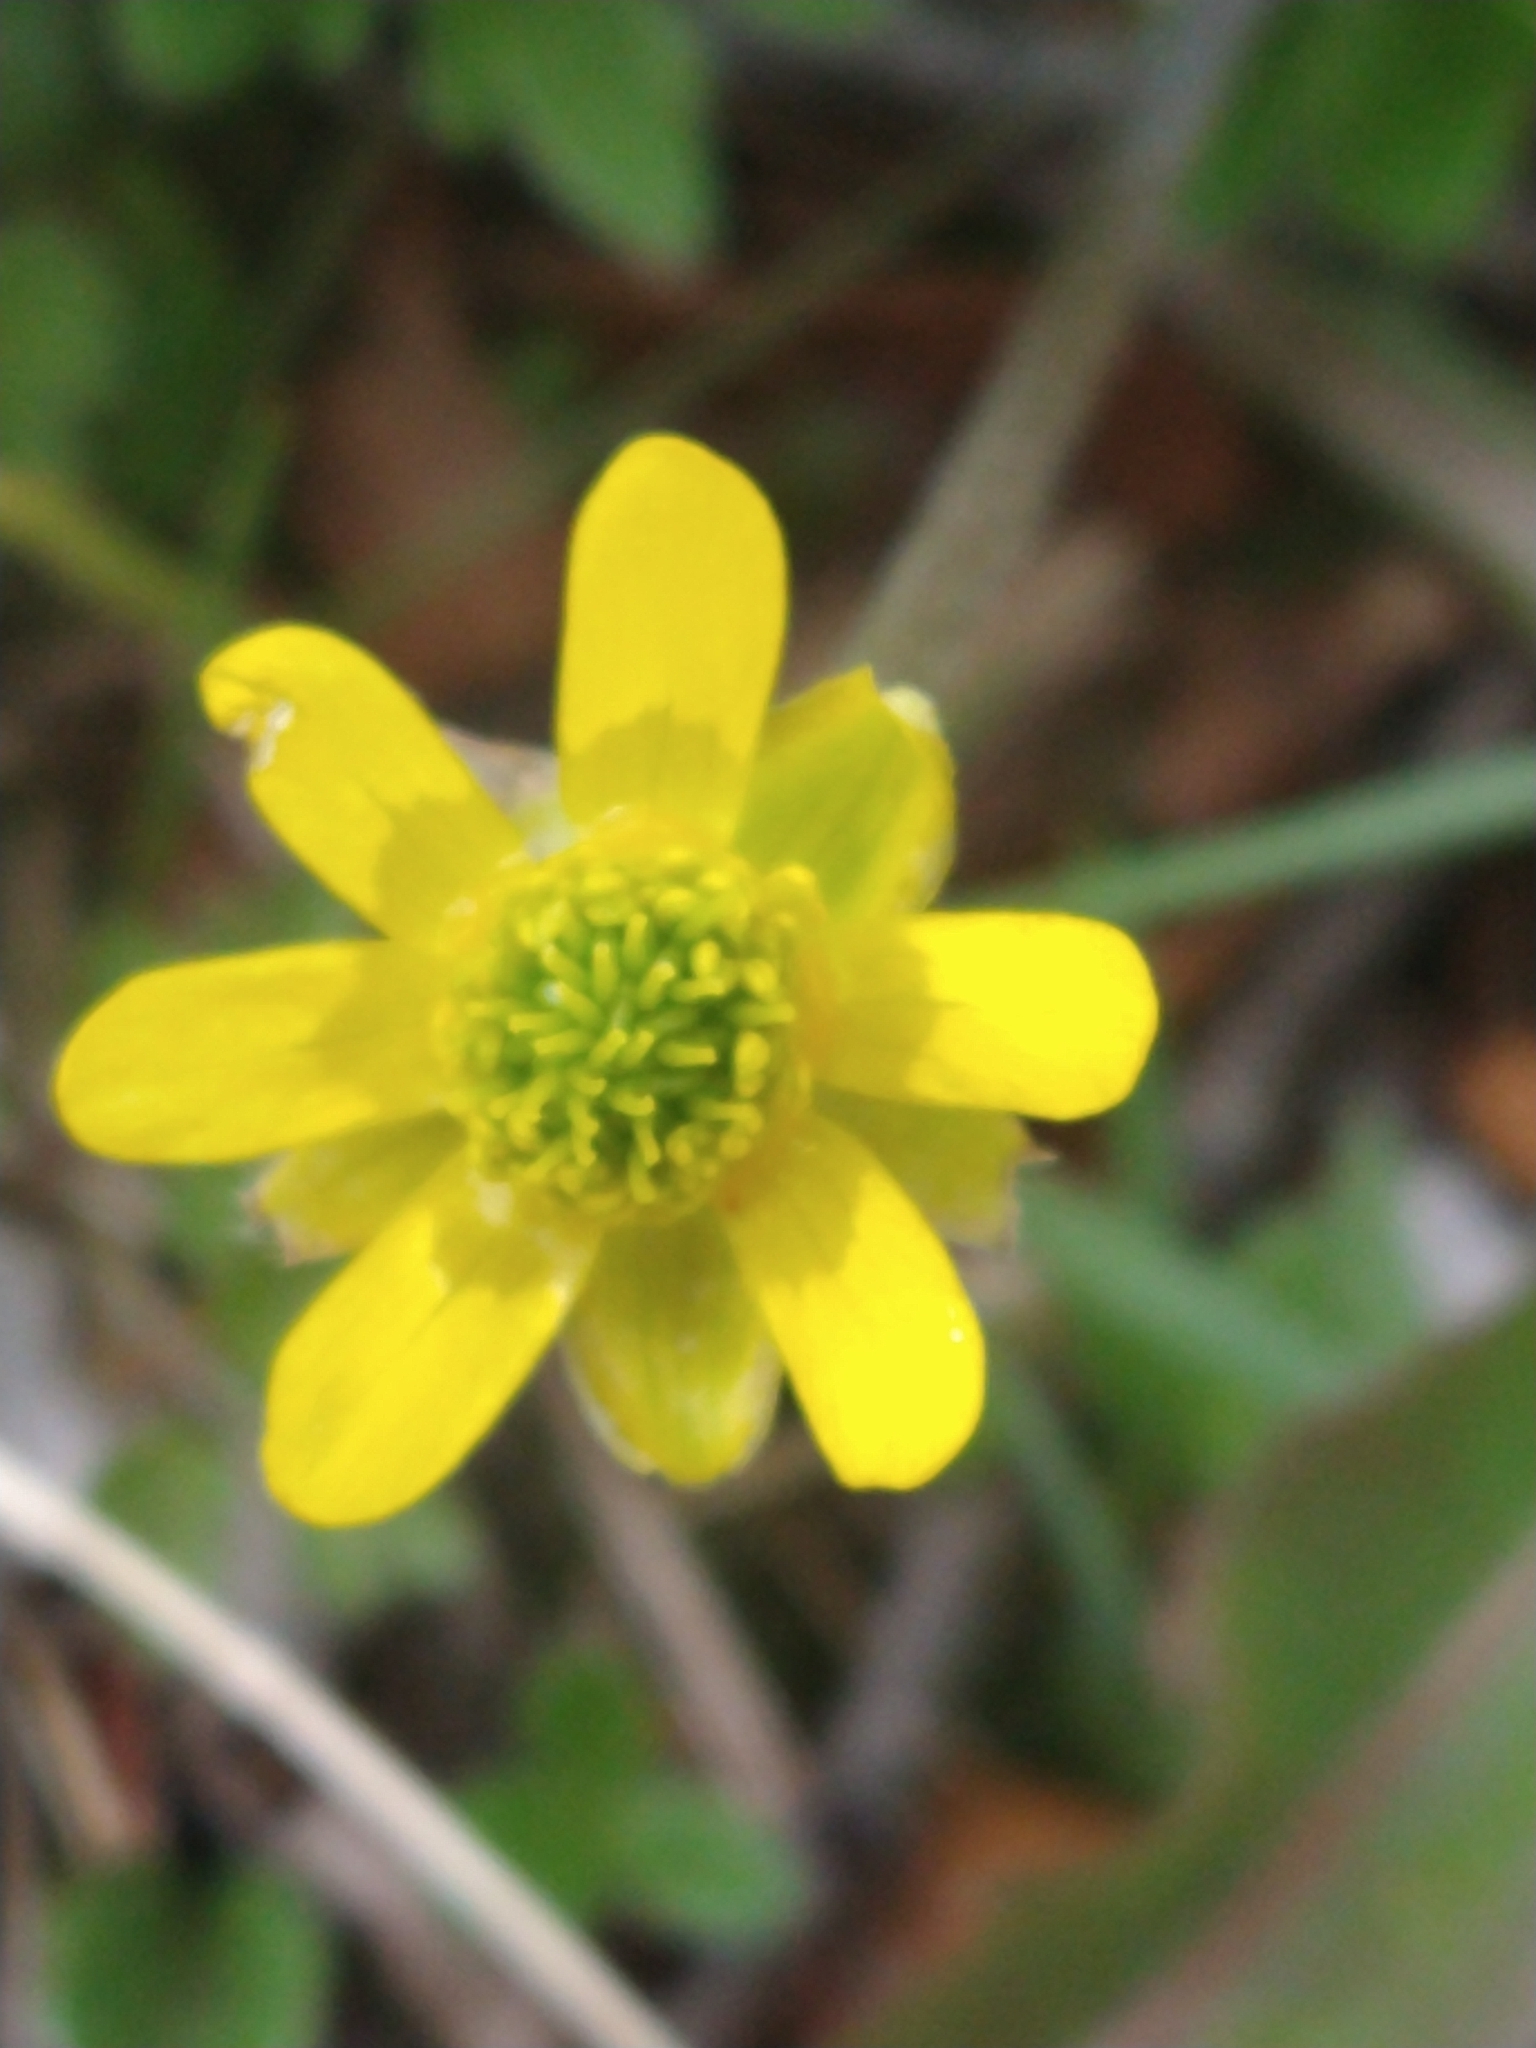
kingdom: Plantae
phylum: Tracheophyta
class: Magnoliopsida
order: Ranunculales
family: Ranunculaceae
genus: Ranunculus
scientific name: Ranunculus peduncularis
